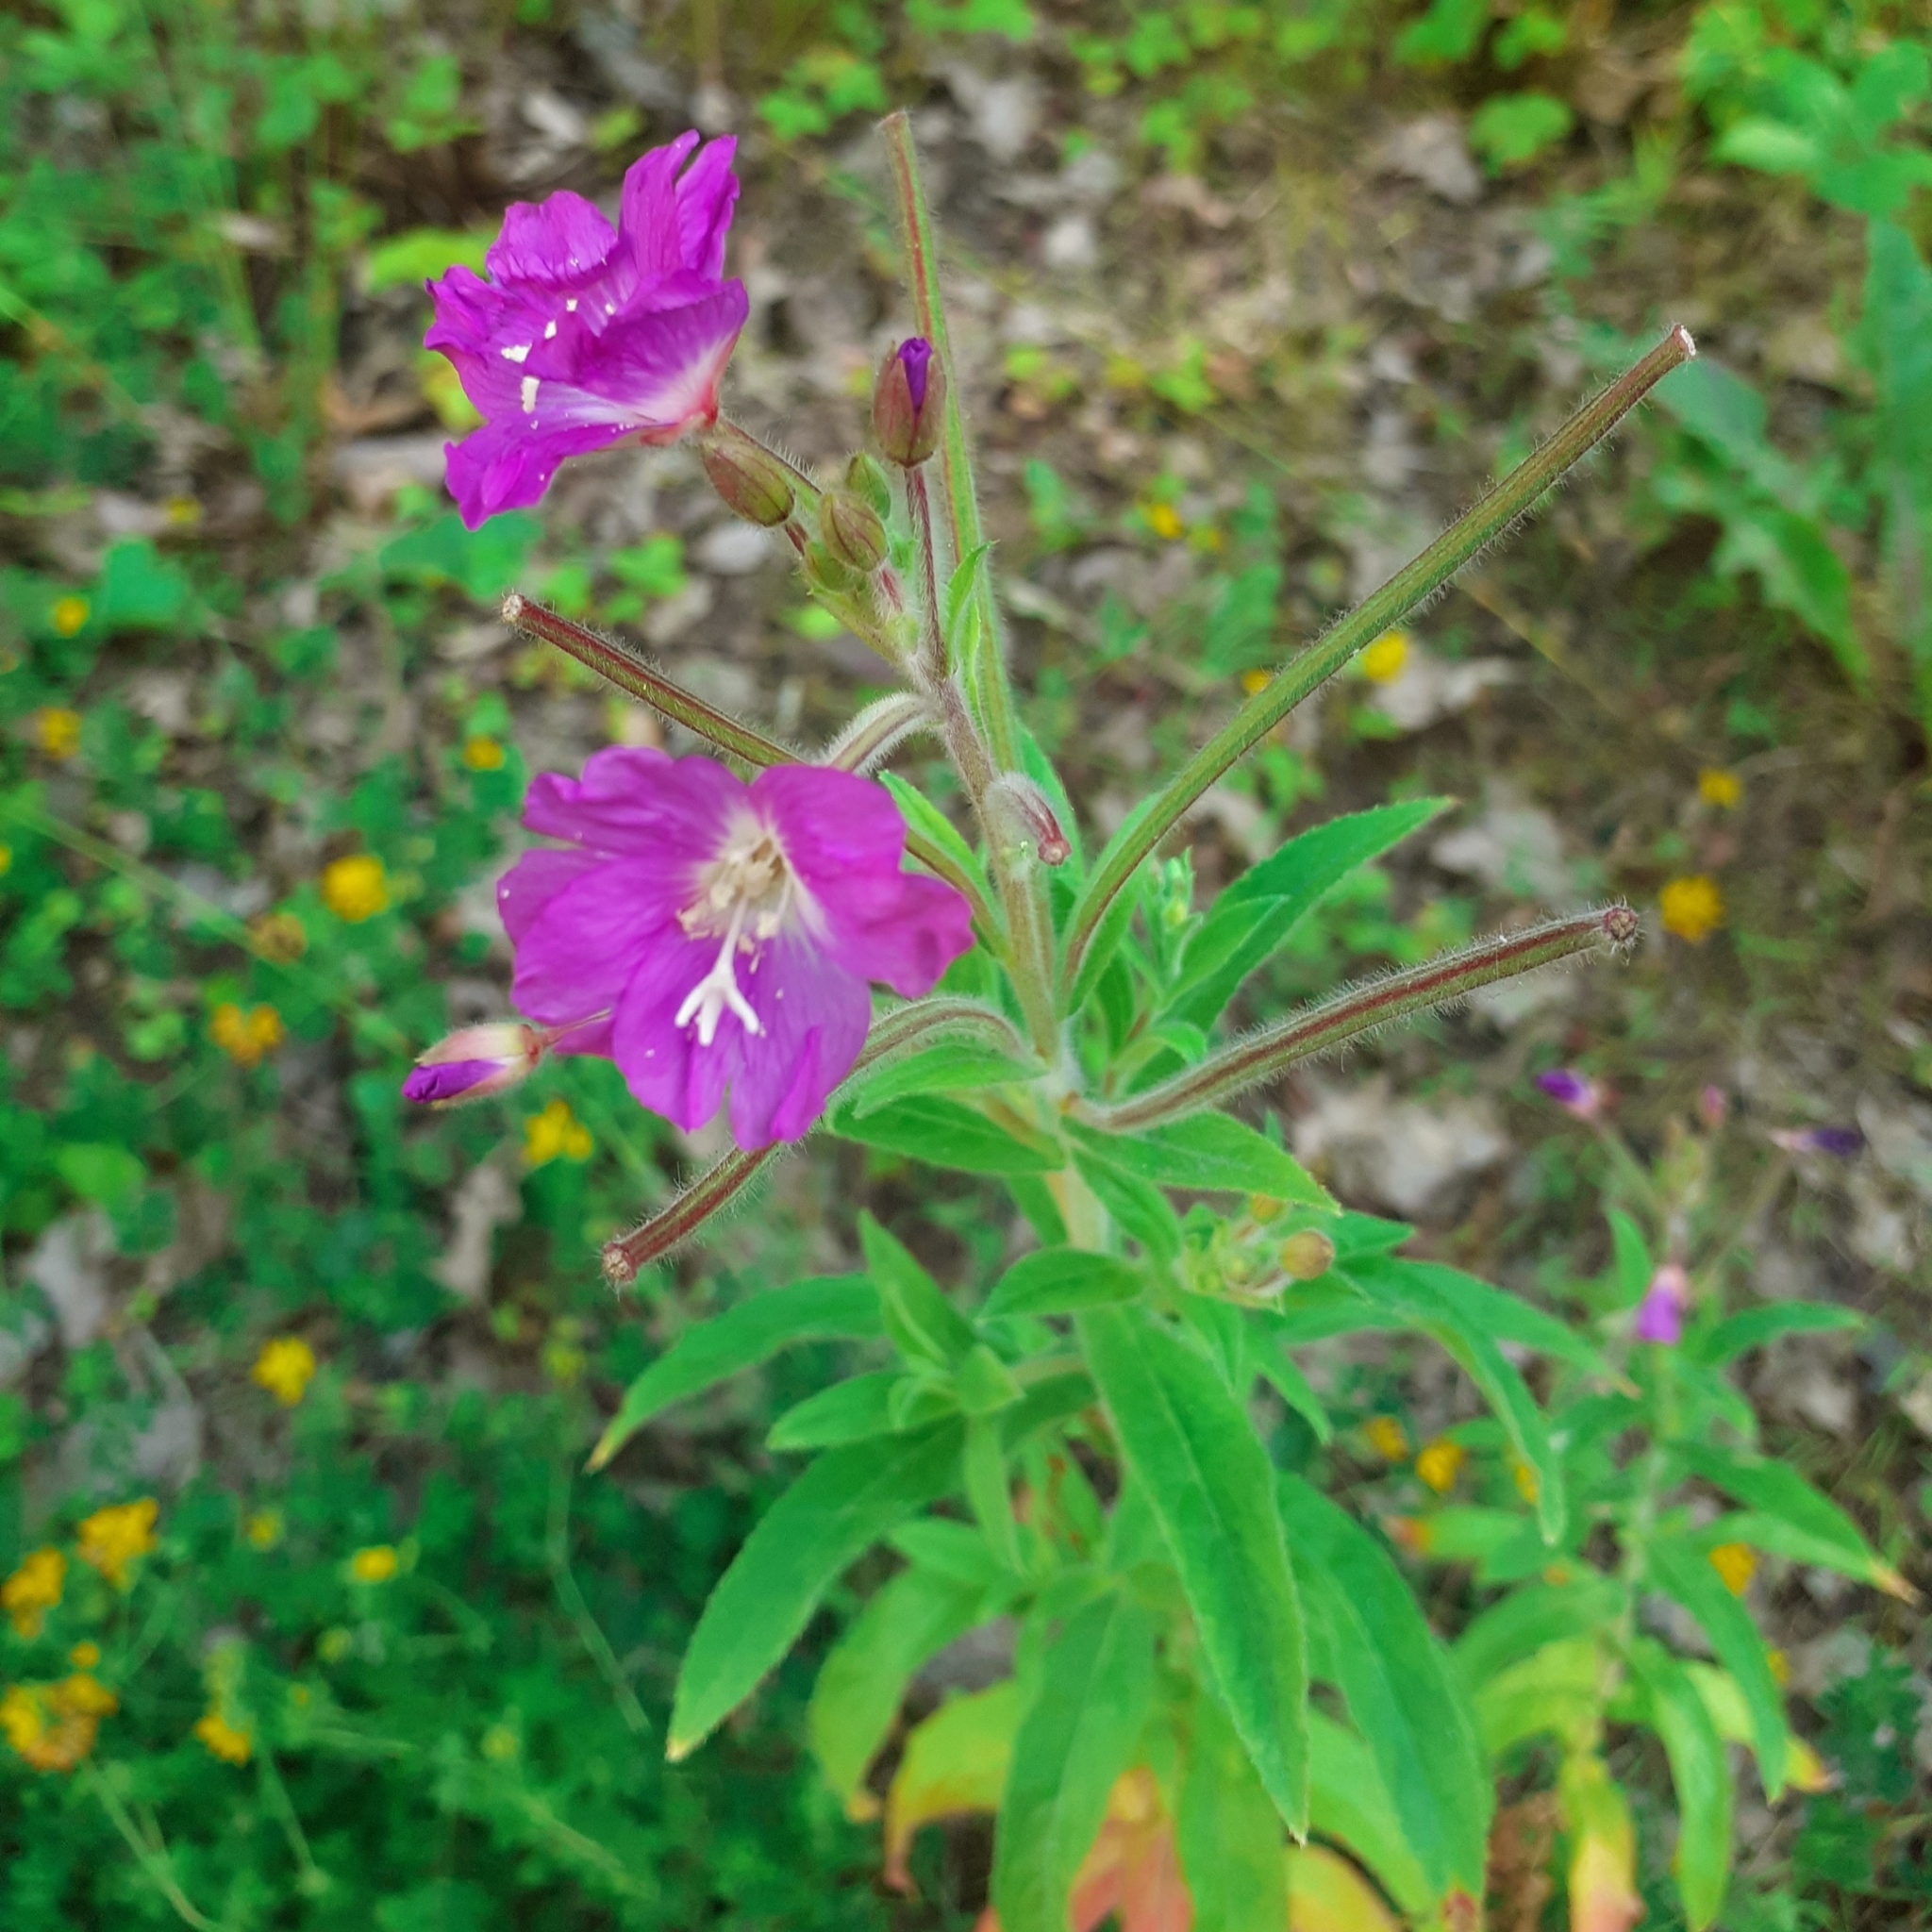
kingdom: Plantae
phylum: Tracheophyta
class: Magnoliopsida
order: Myrtales
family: Onagraceae
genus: Epilobium
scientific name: Epilobium hirsutum
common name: Great willowherb
